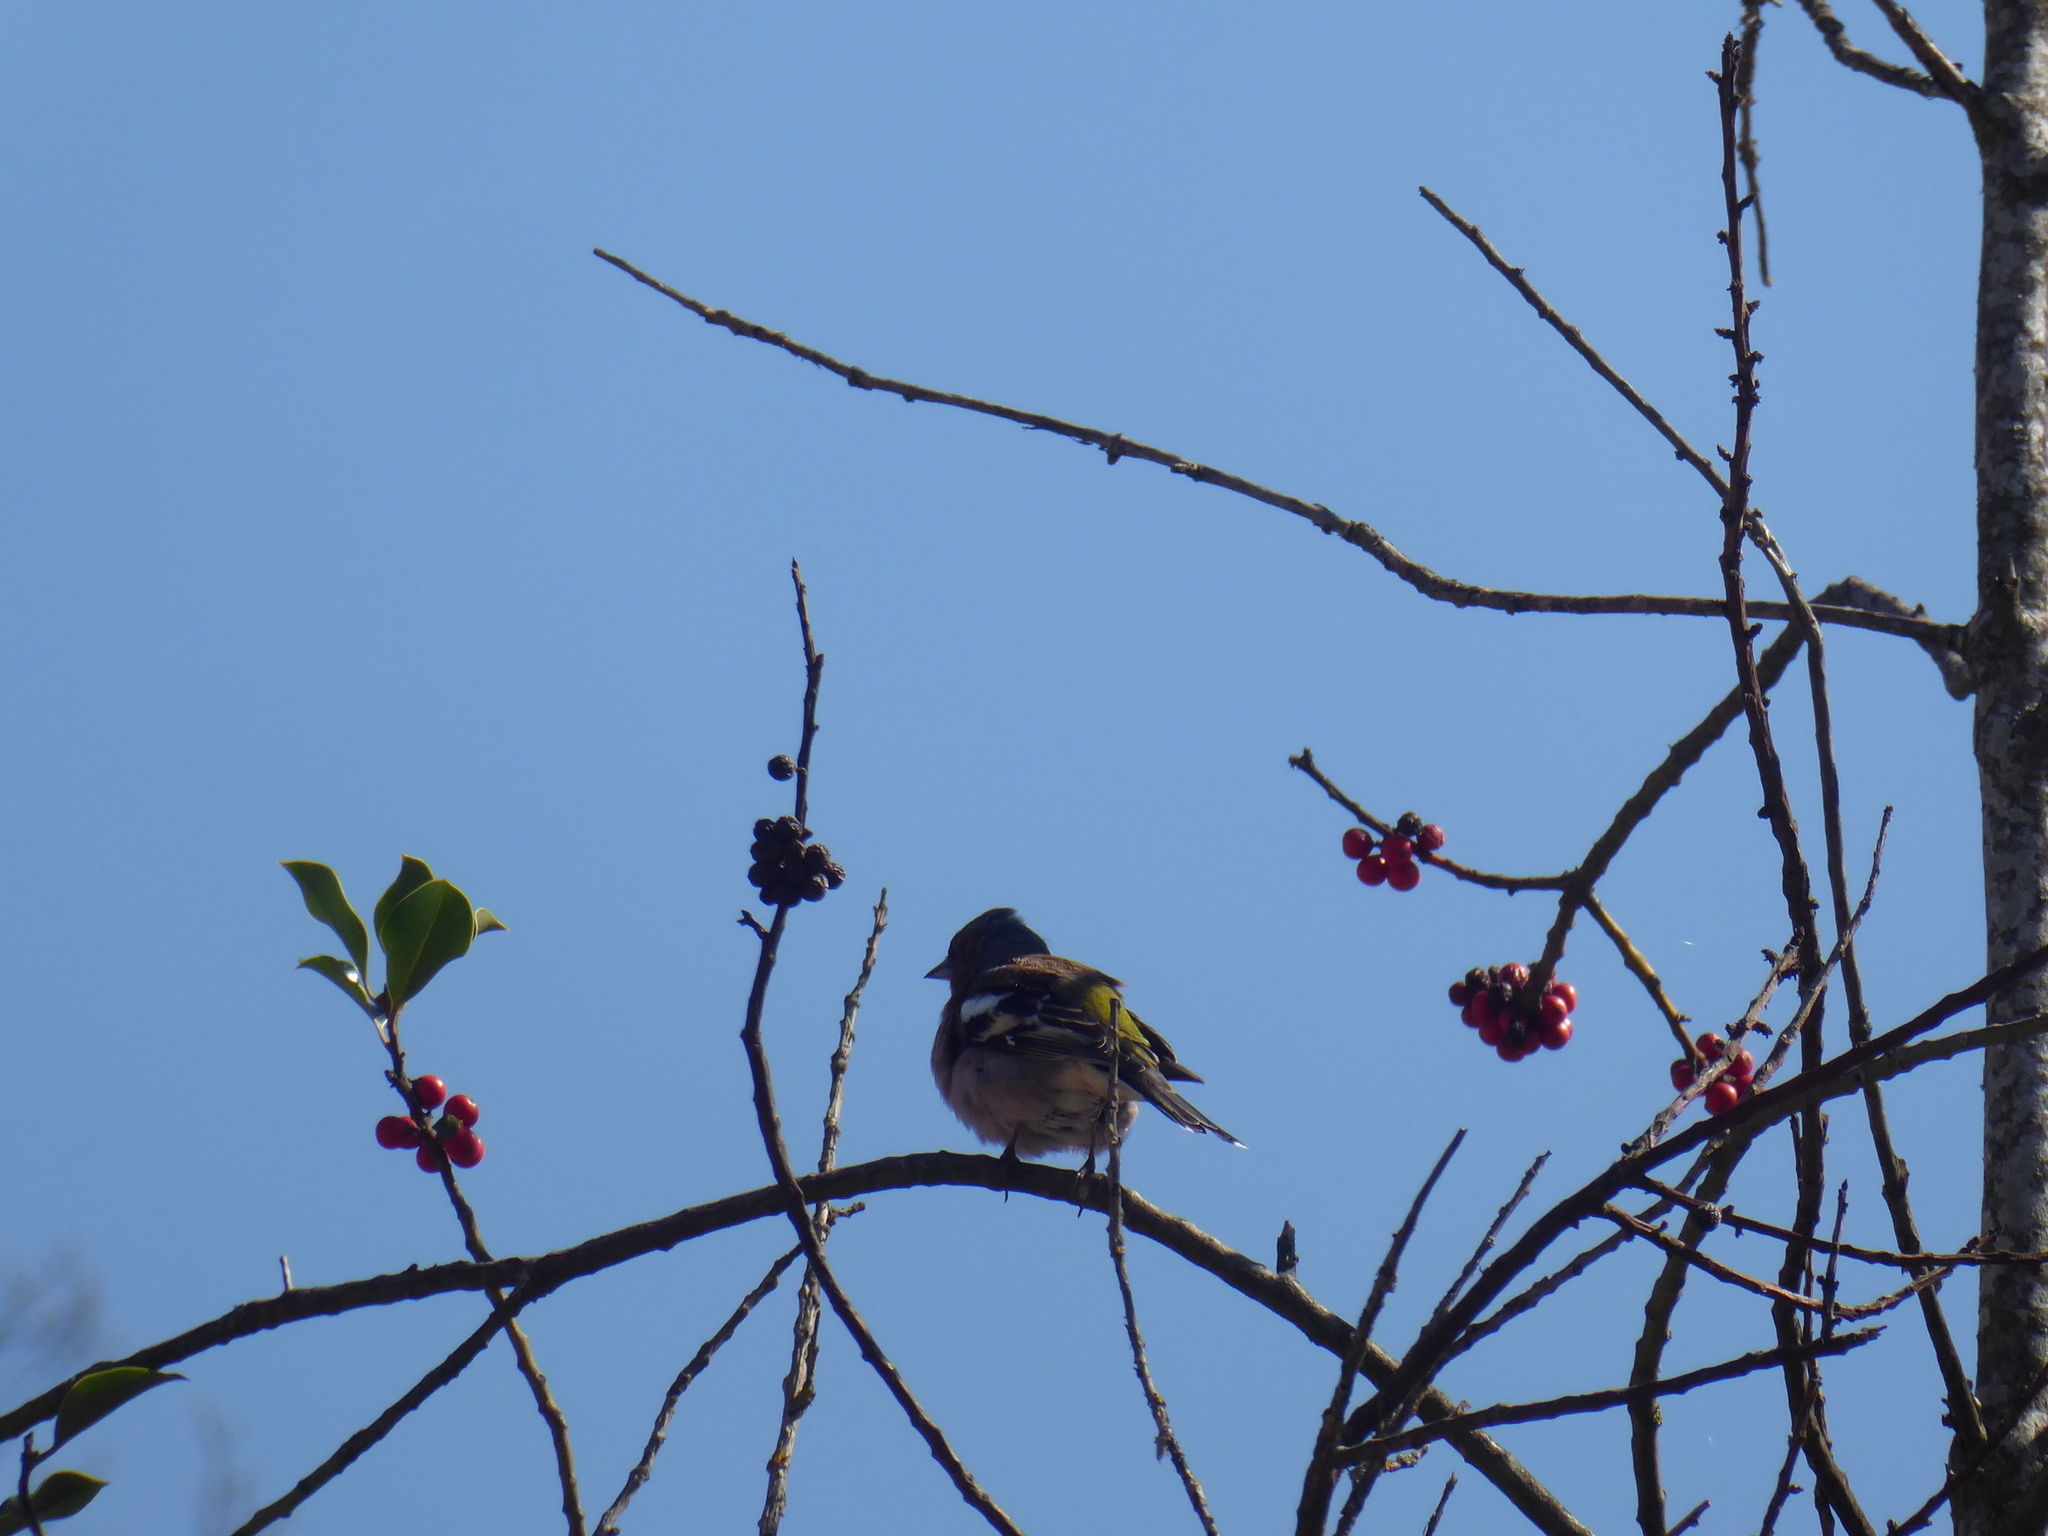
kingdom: Animalia
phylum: Chordata
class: Aves
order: Passeriformes
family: Fringillidae
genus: Fringilla
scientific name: Fringilla coelebs
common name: Common chaffinch
